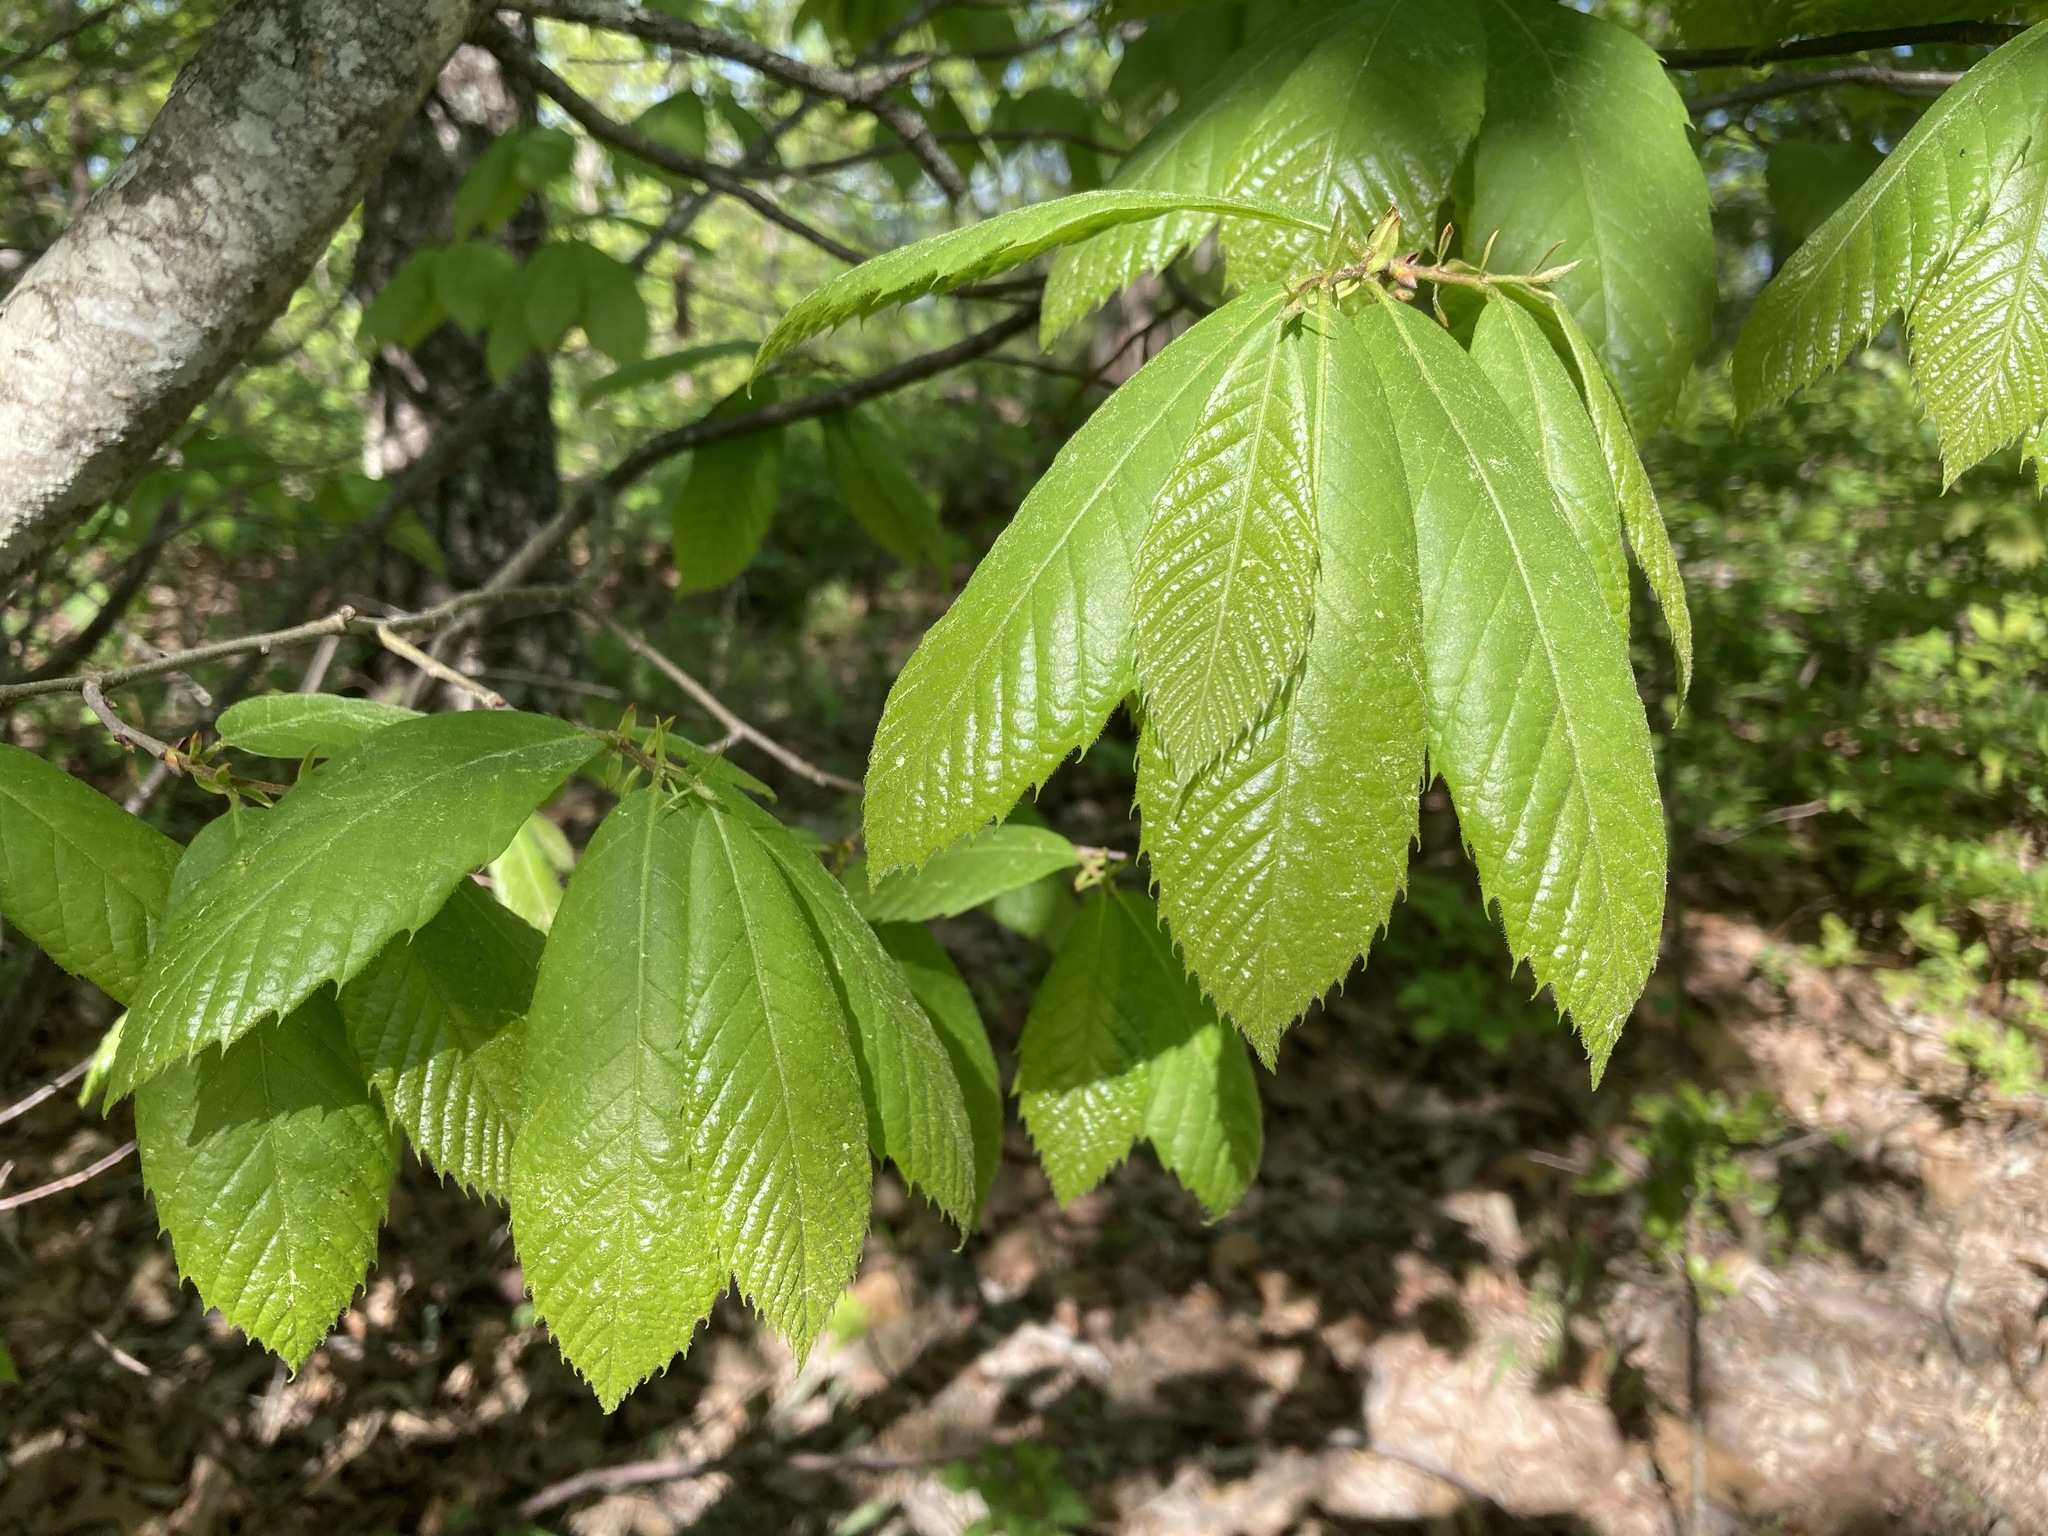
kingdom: Plantae
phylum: Tracheophyta
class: Magnoliopsida
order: Fagales
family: Fagaceae
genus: Castanea
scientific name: Castanea ozarkensis
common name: Ozark chinkapin
